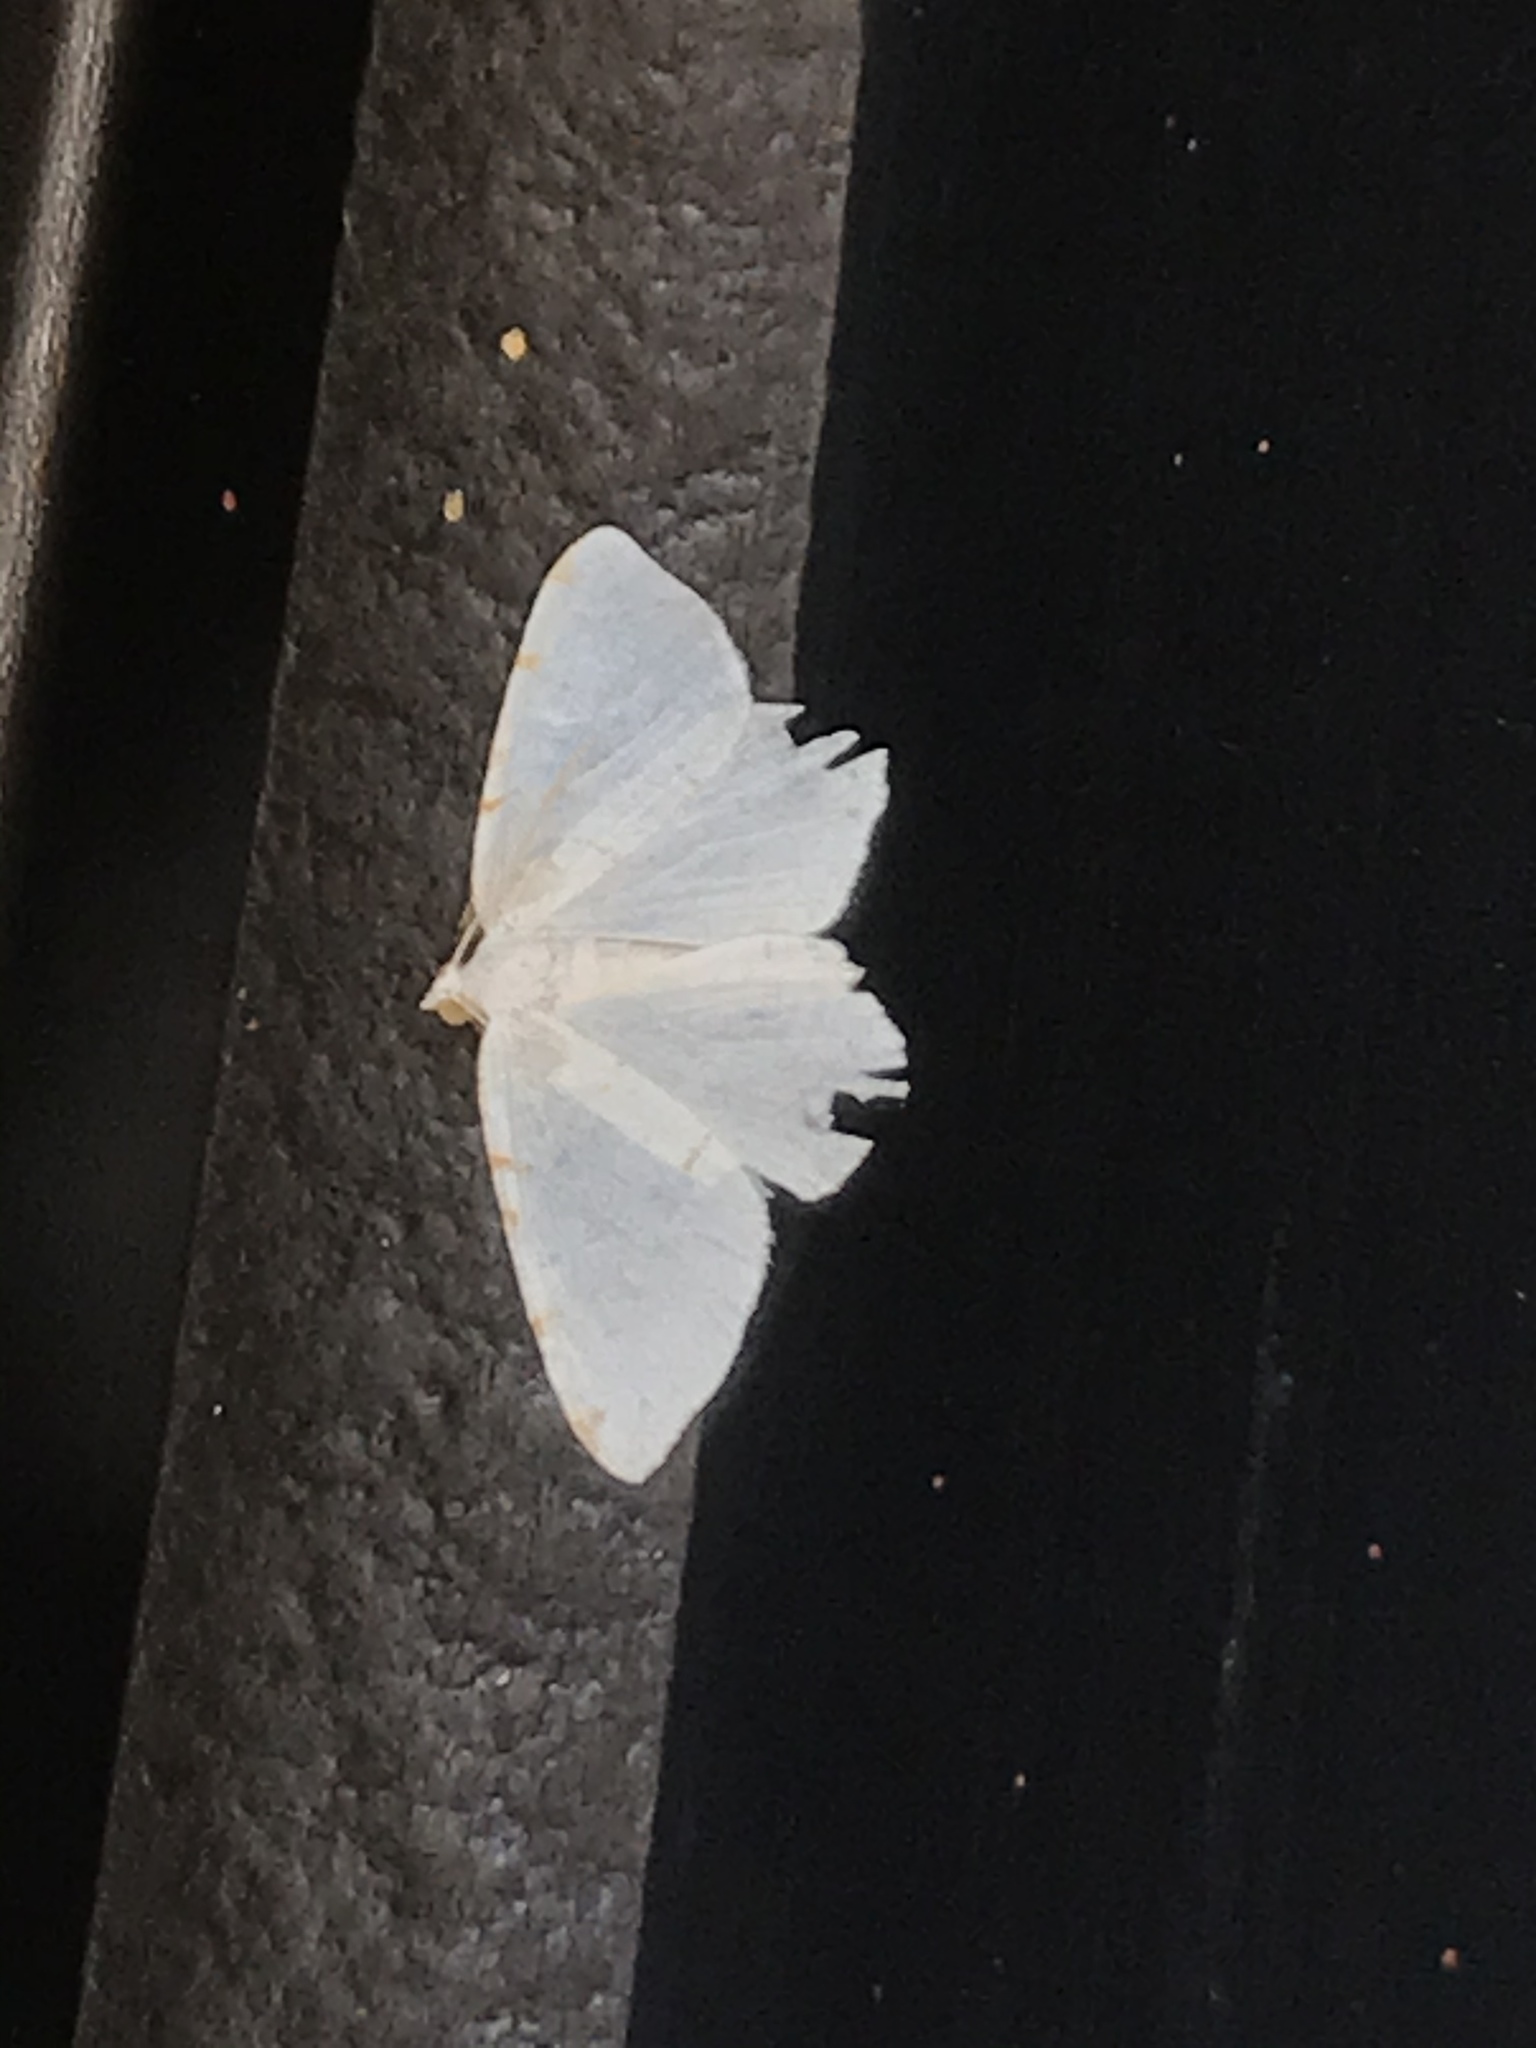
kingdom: Animalia
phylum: Arthropoda
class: Insecta
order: Lepidoptera
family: Geometridae
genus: Macaria
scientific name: Macaria pustularia
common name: Lesser maple spanworm moth
